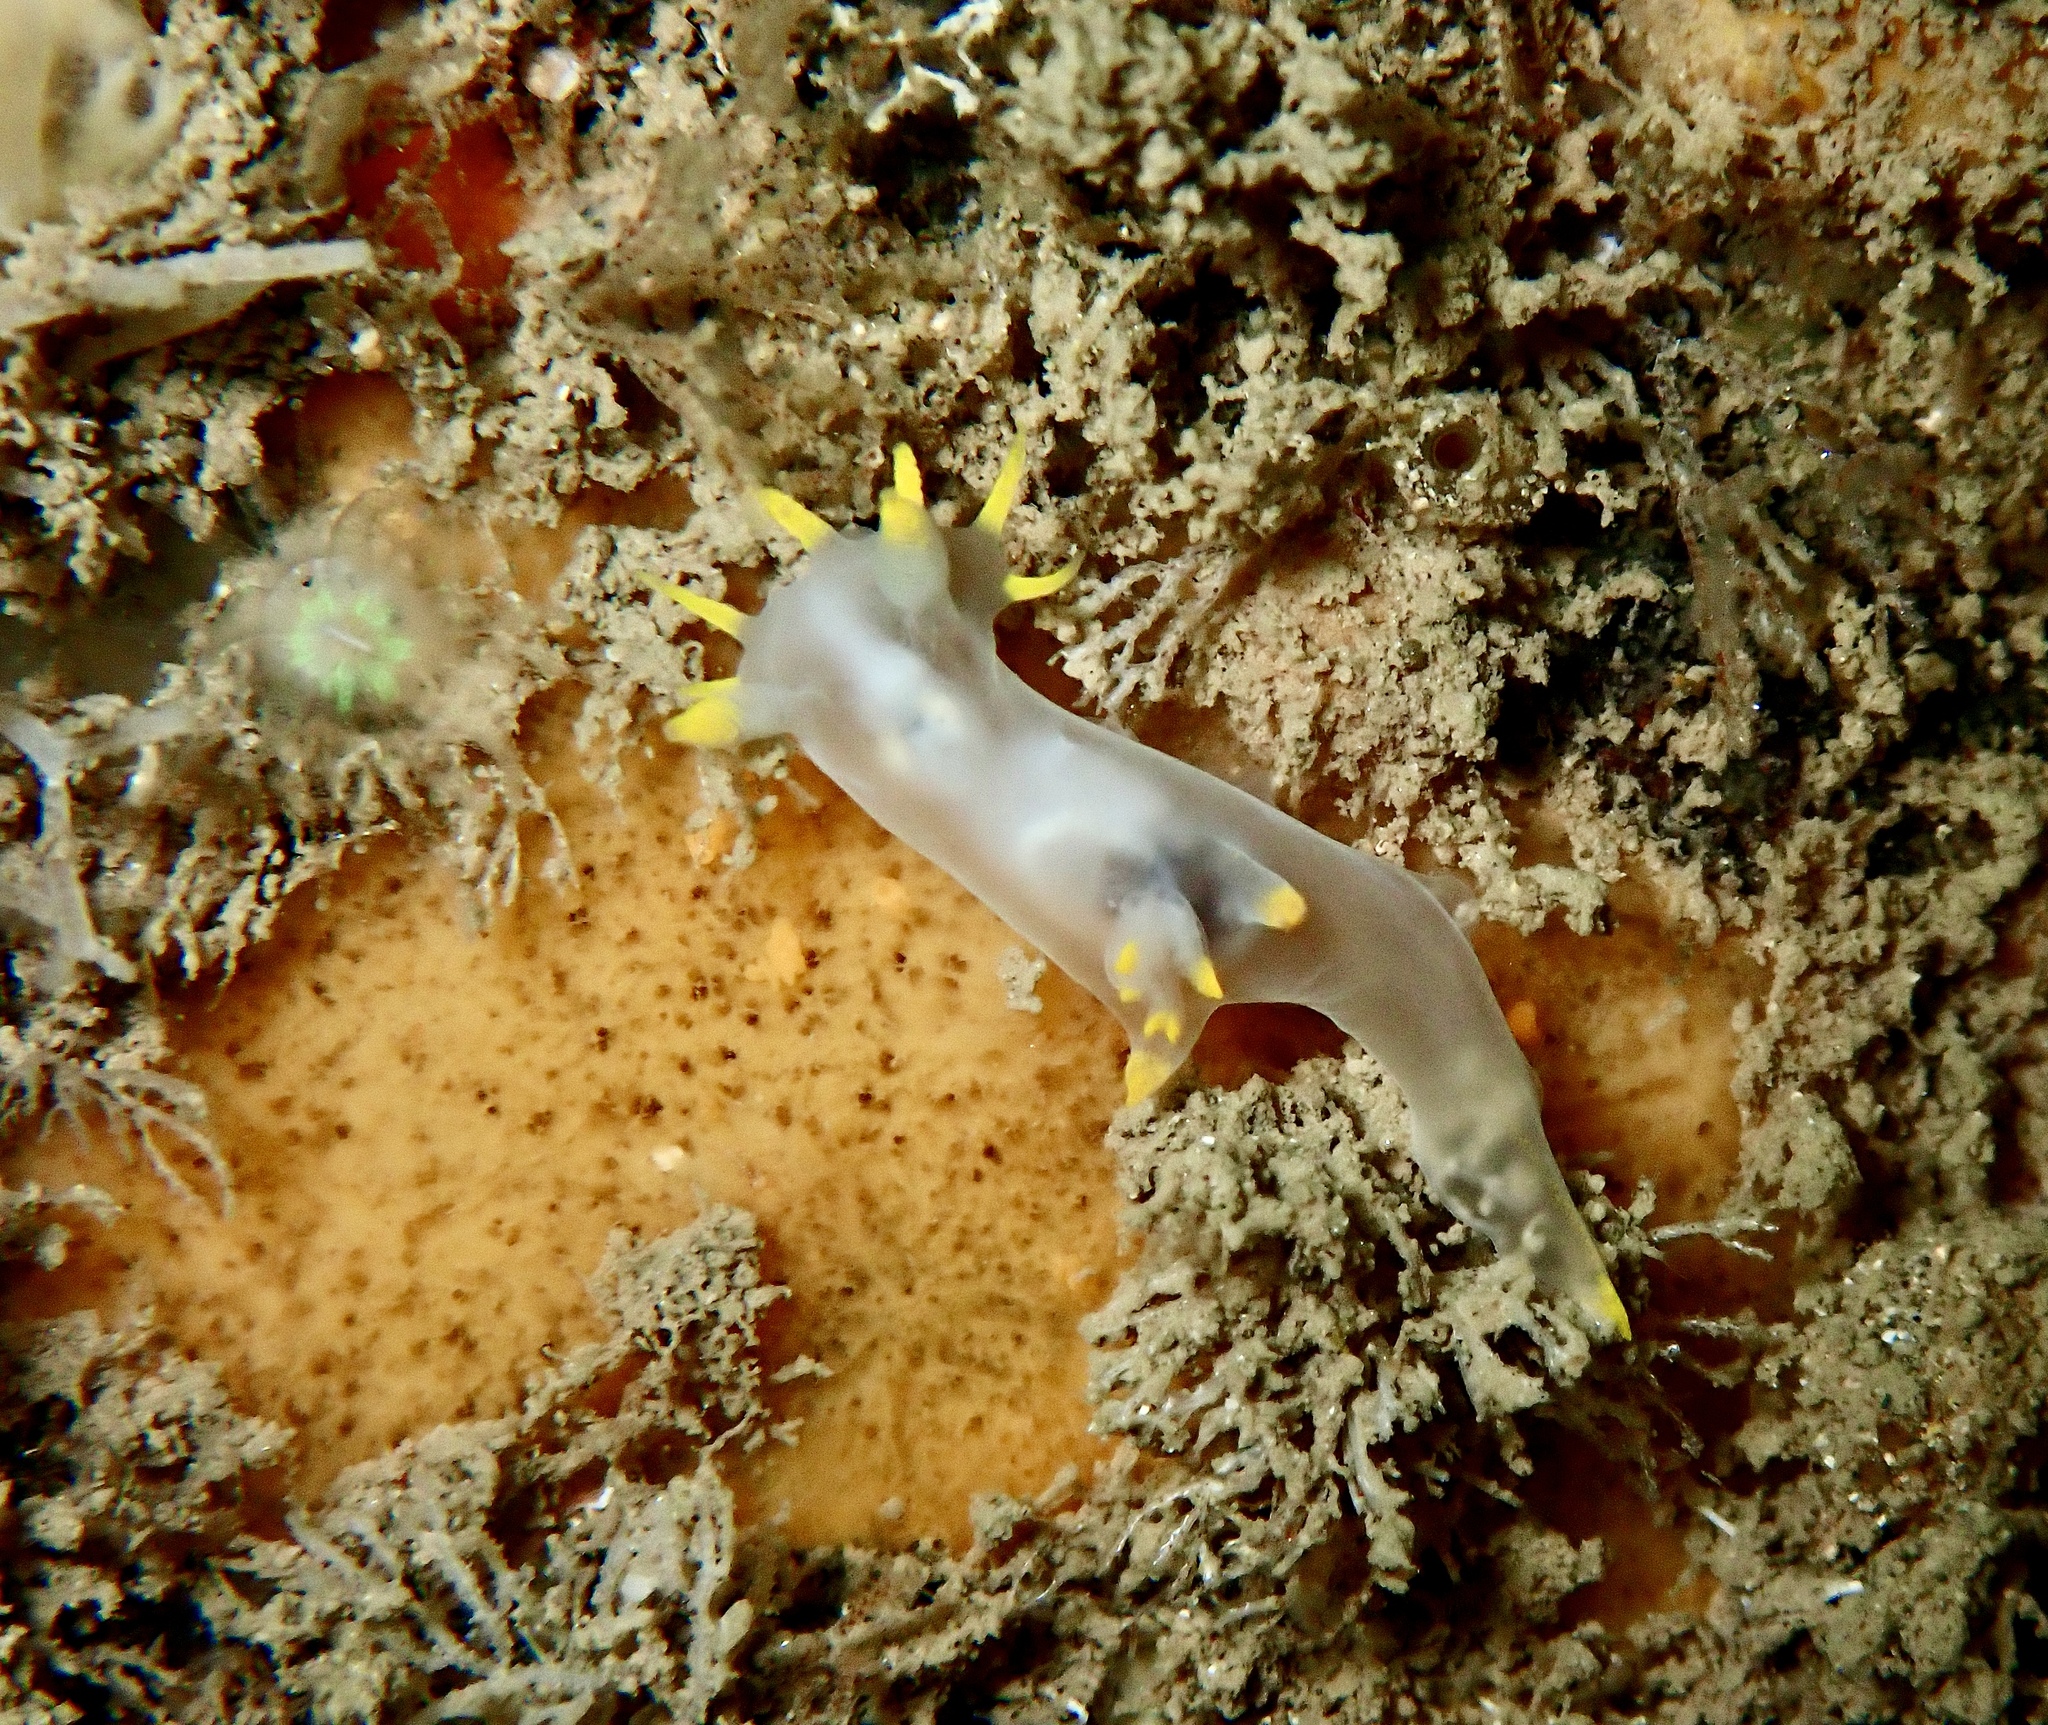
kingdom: Animalia
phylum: Mollusca
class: Gastropoda
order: Nudibranchia
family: Polyceridae
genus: Polycera
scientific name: Polycera kernowensis
